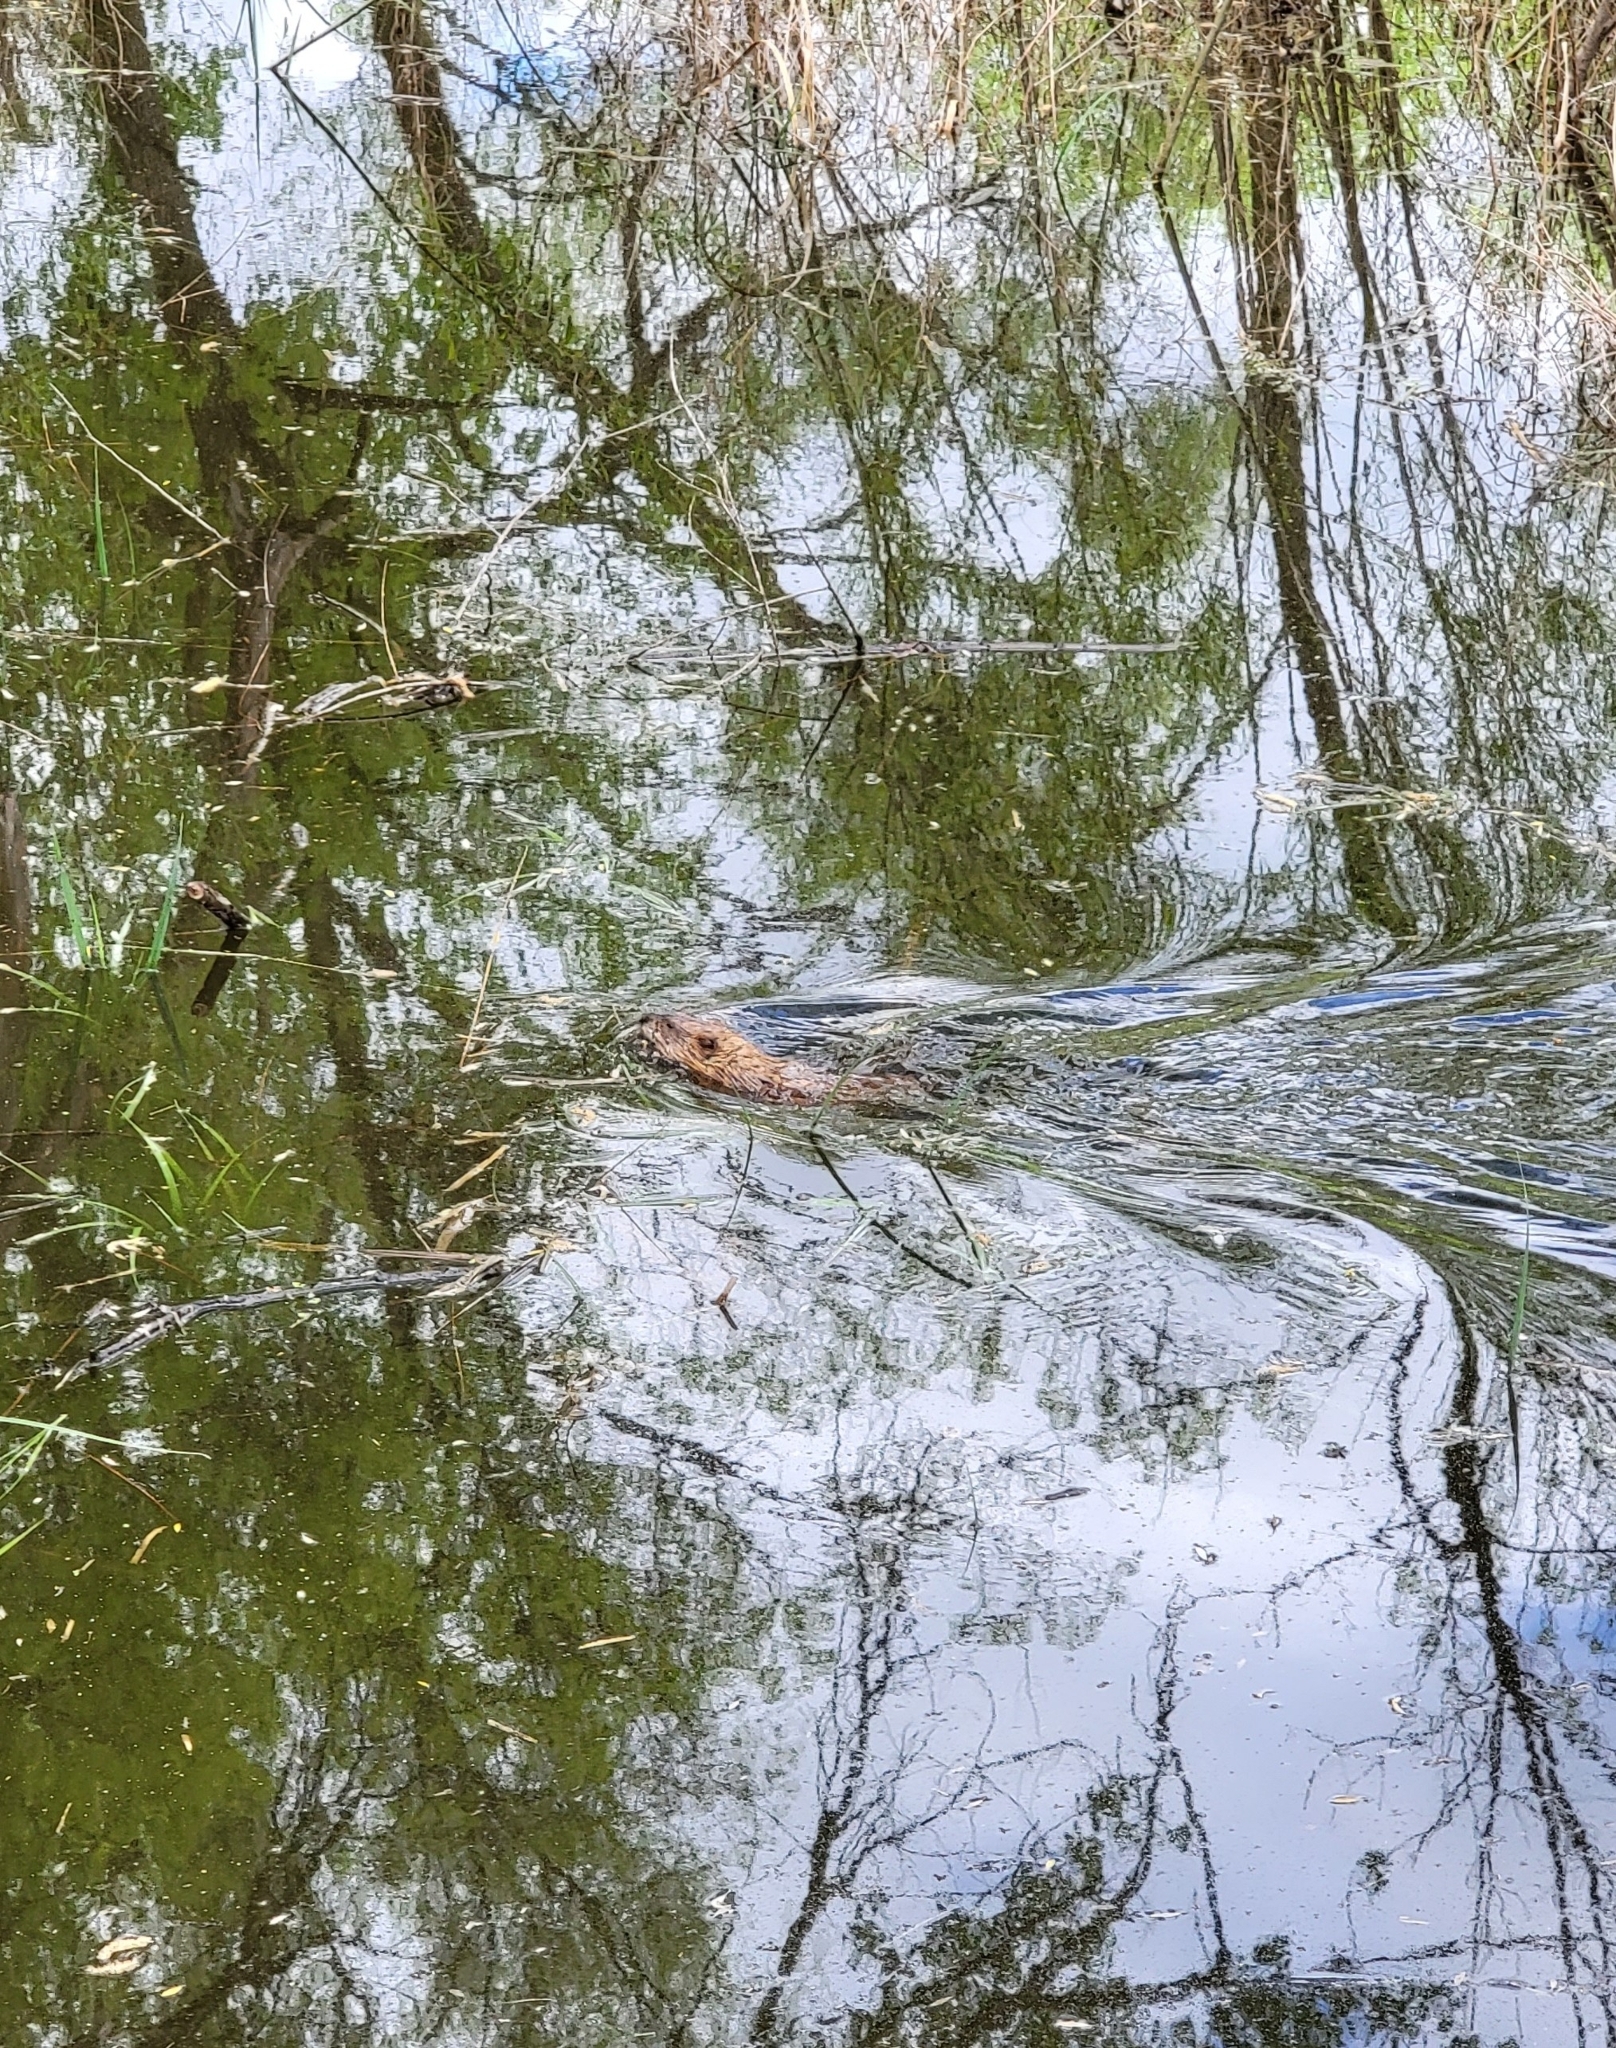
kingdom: Animalia
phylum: Chordata
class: Mammalia
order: Rodentia
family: Cricetidae
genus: Ondatra
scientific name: Ondatra zibethicus
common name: Muskrat
